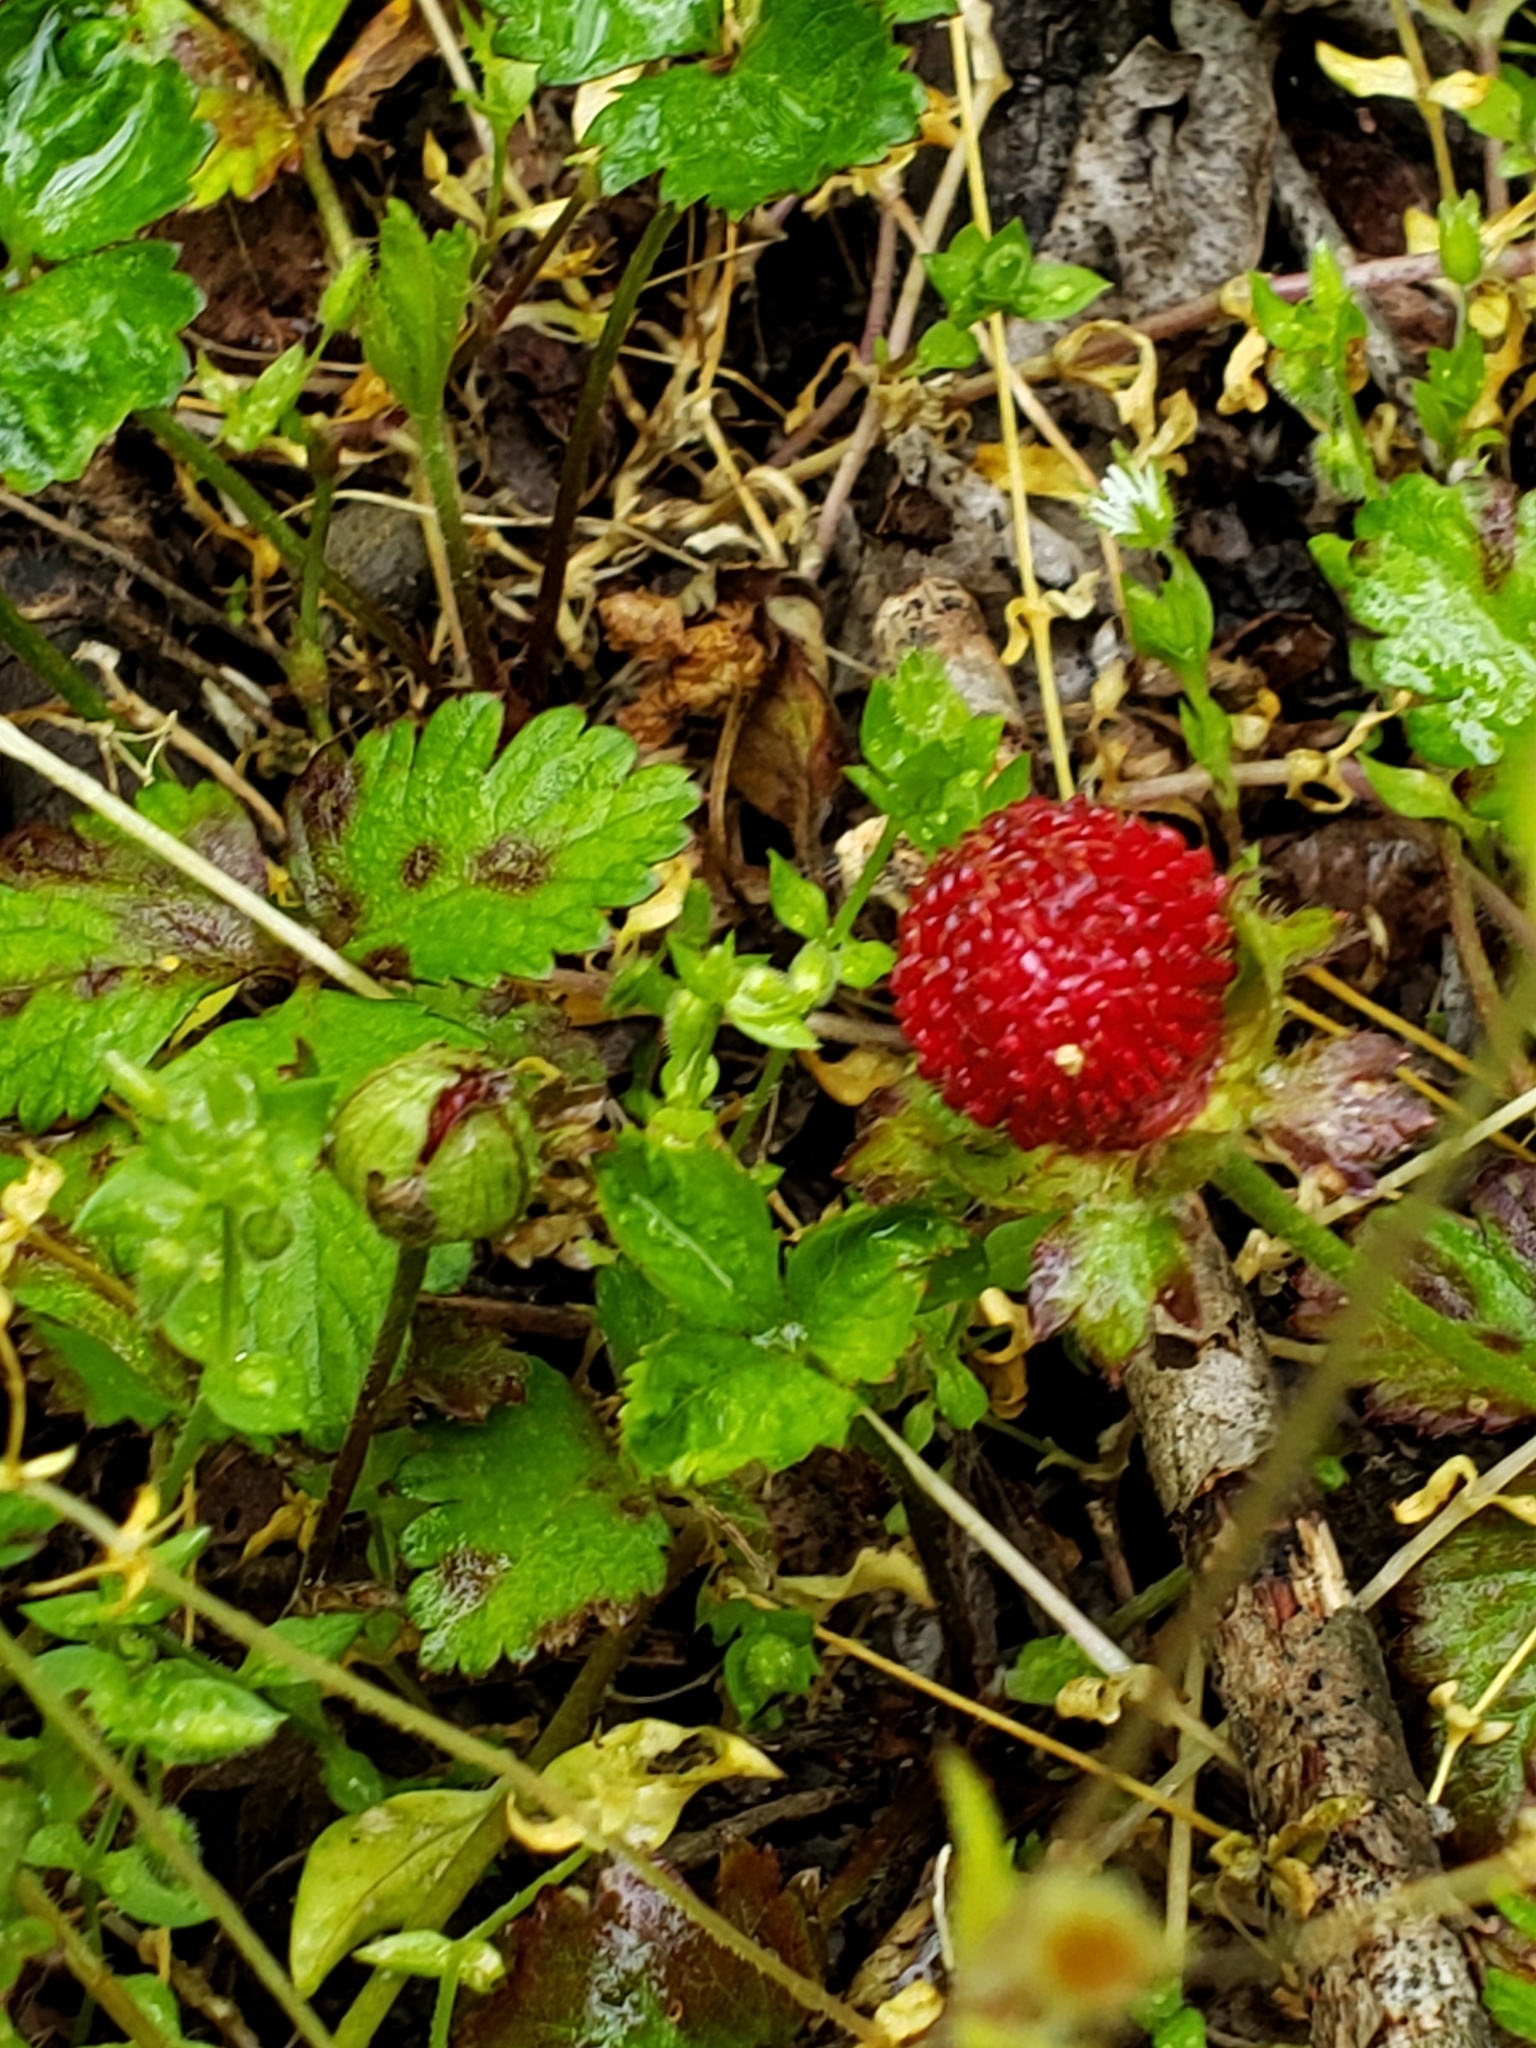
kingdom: Plantae
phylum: Tracheophyta
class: Magnoliopsida
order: Rosales
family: Rosaceae
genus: Potentilla
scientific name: Potentilla indica
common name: Yellow-flowered strawberry
